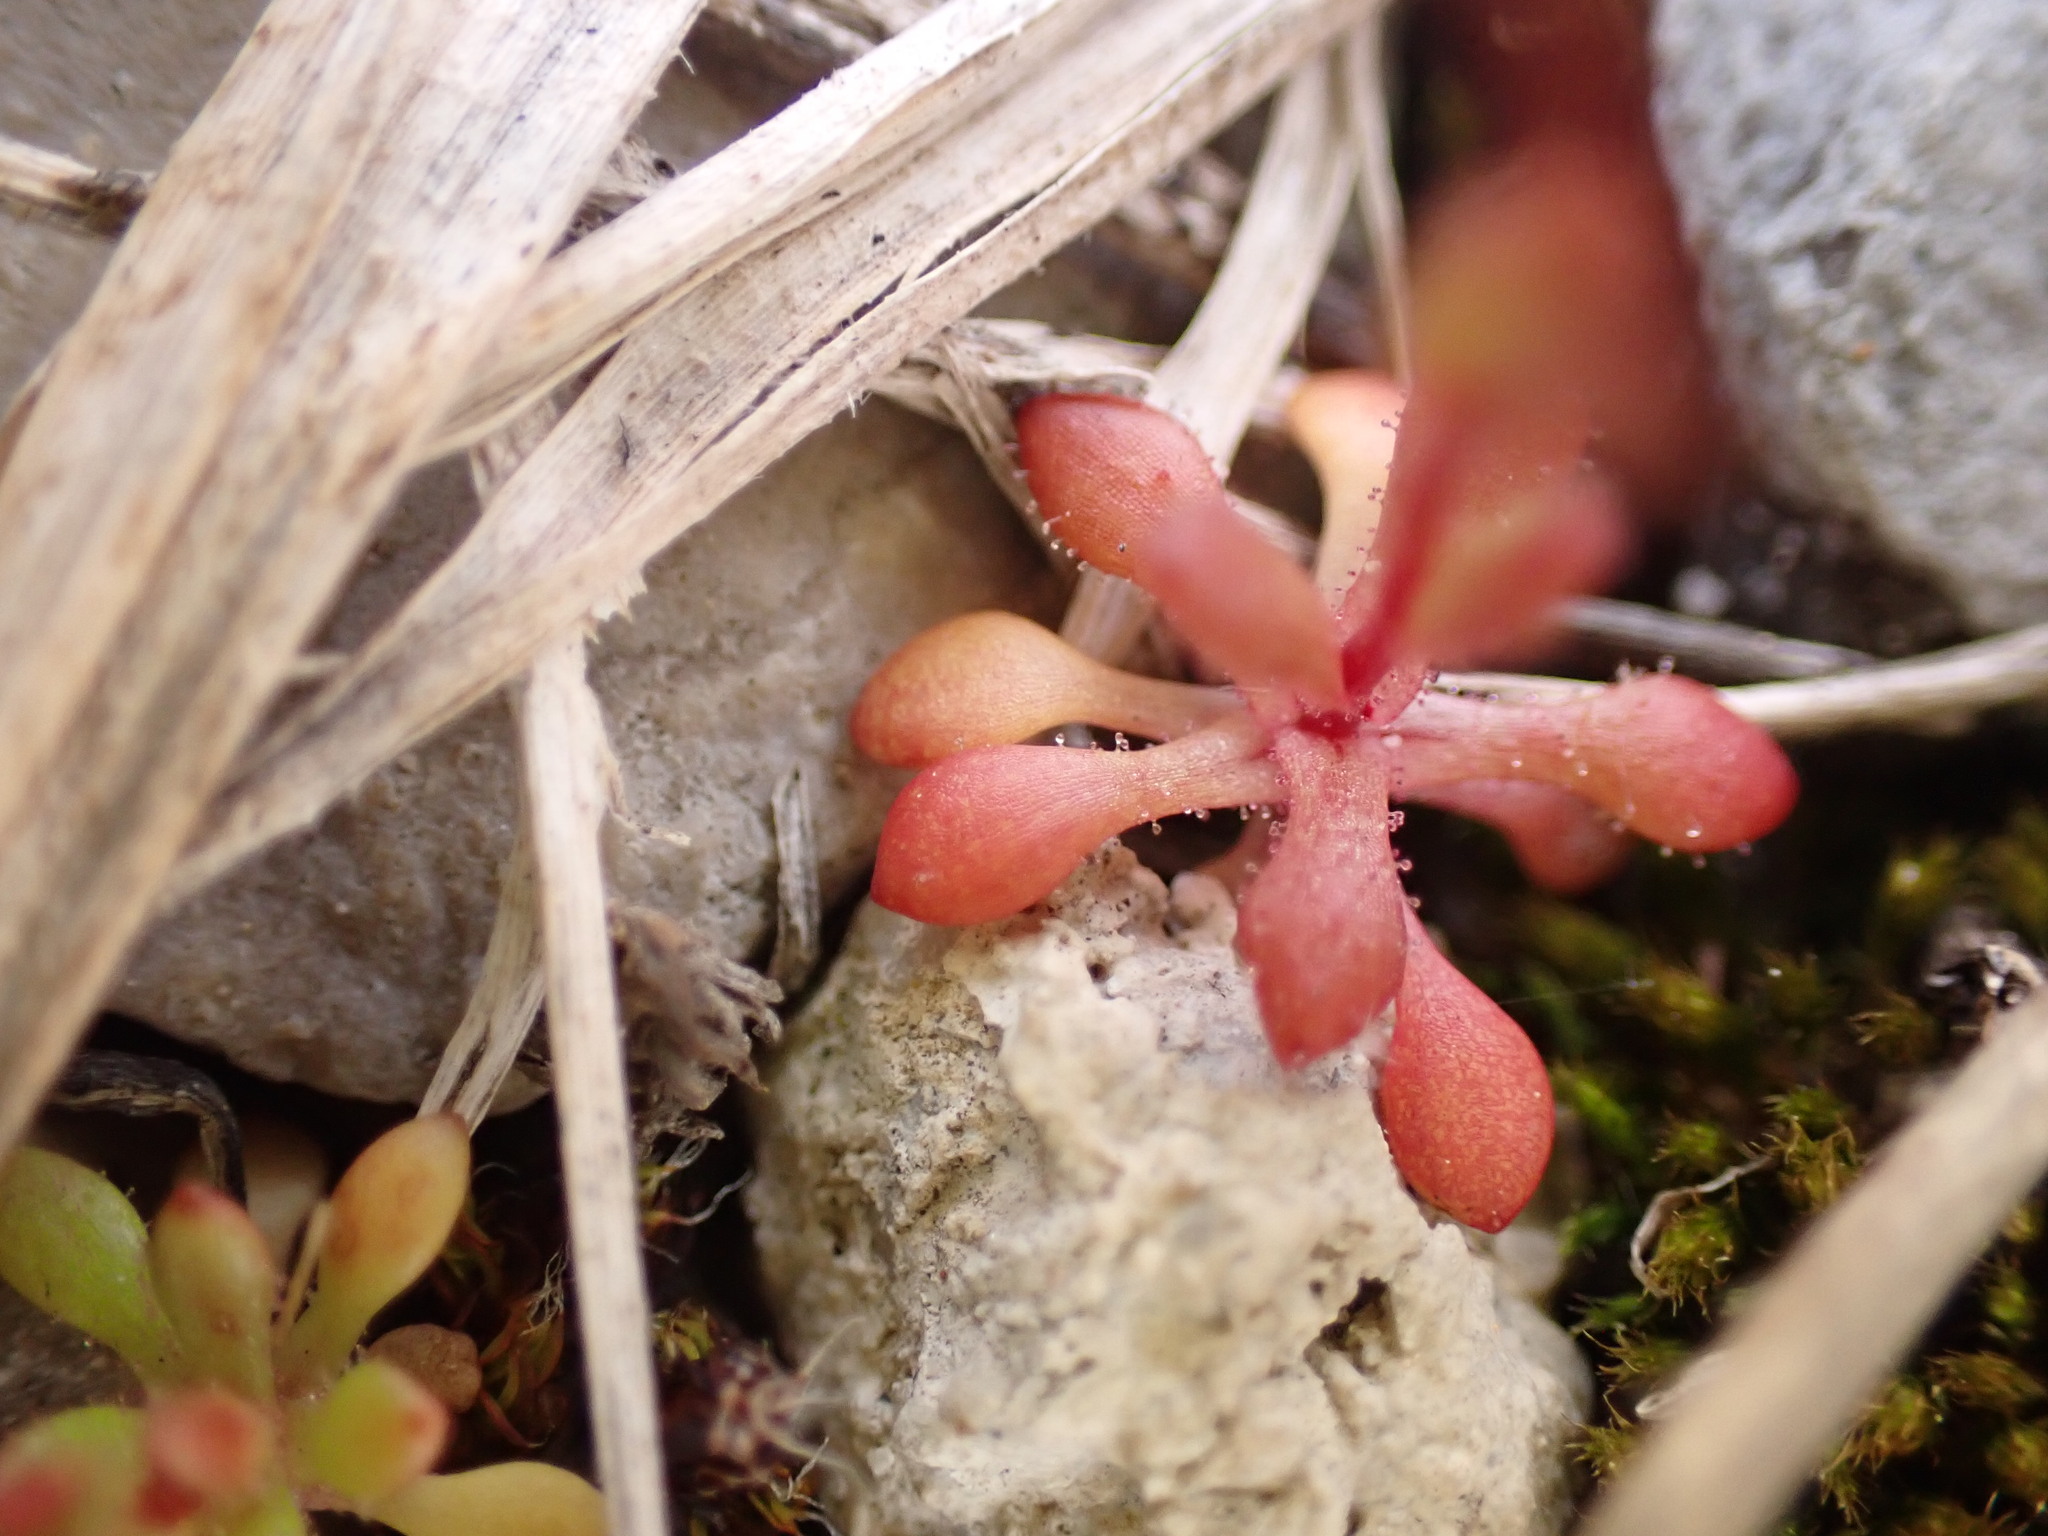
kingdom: Plantae
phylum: Tracheophyta
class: Magnoliopsida
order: Saxifragales
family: Saxifragaceae
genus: Saxifraga
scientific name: Saxifraga tridactylites
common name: Rue-leaved saxifrage
